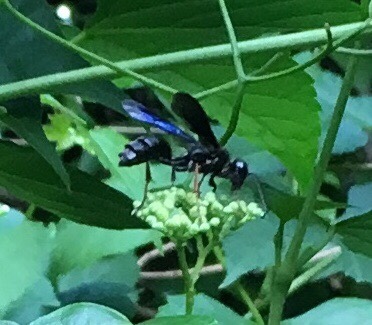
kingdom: Animalia
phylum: Arthropoda
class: Insecta
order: Hymenoptera
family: Sphecidae
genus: Isodontia
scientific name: Isodontia auripes
